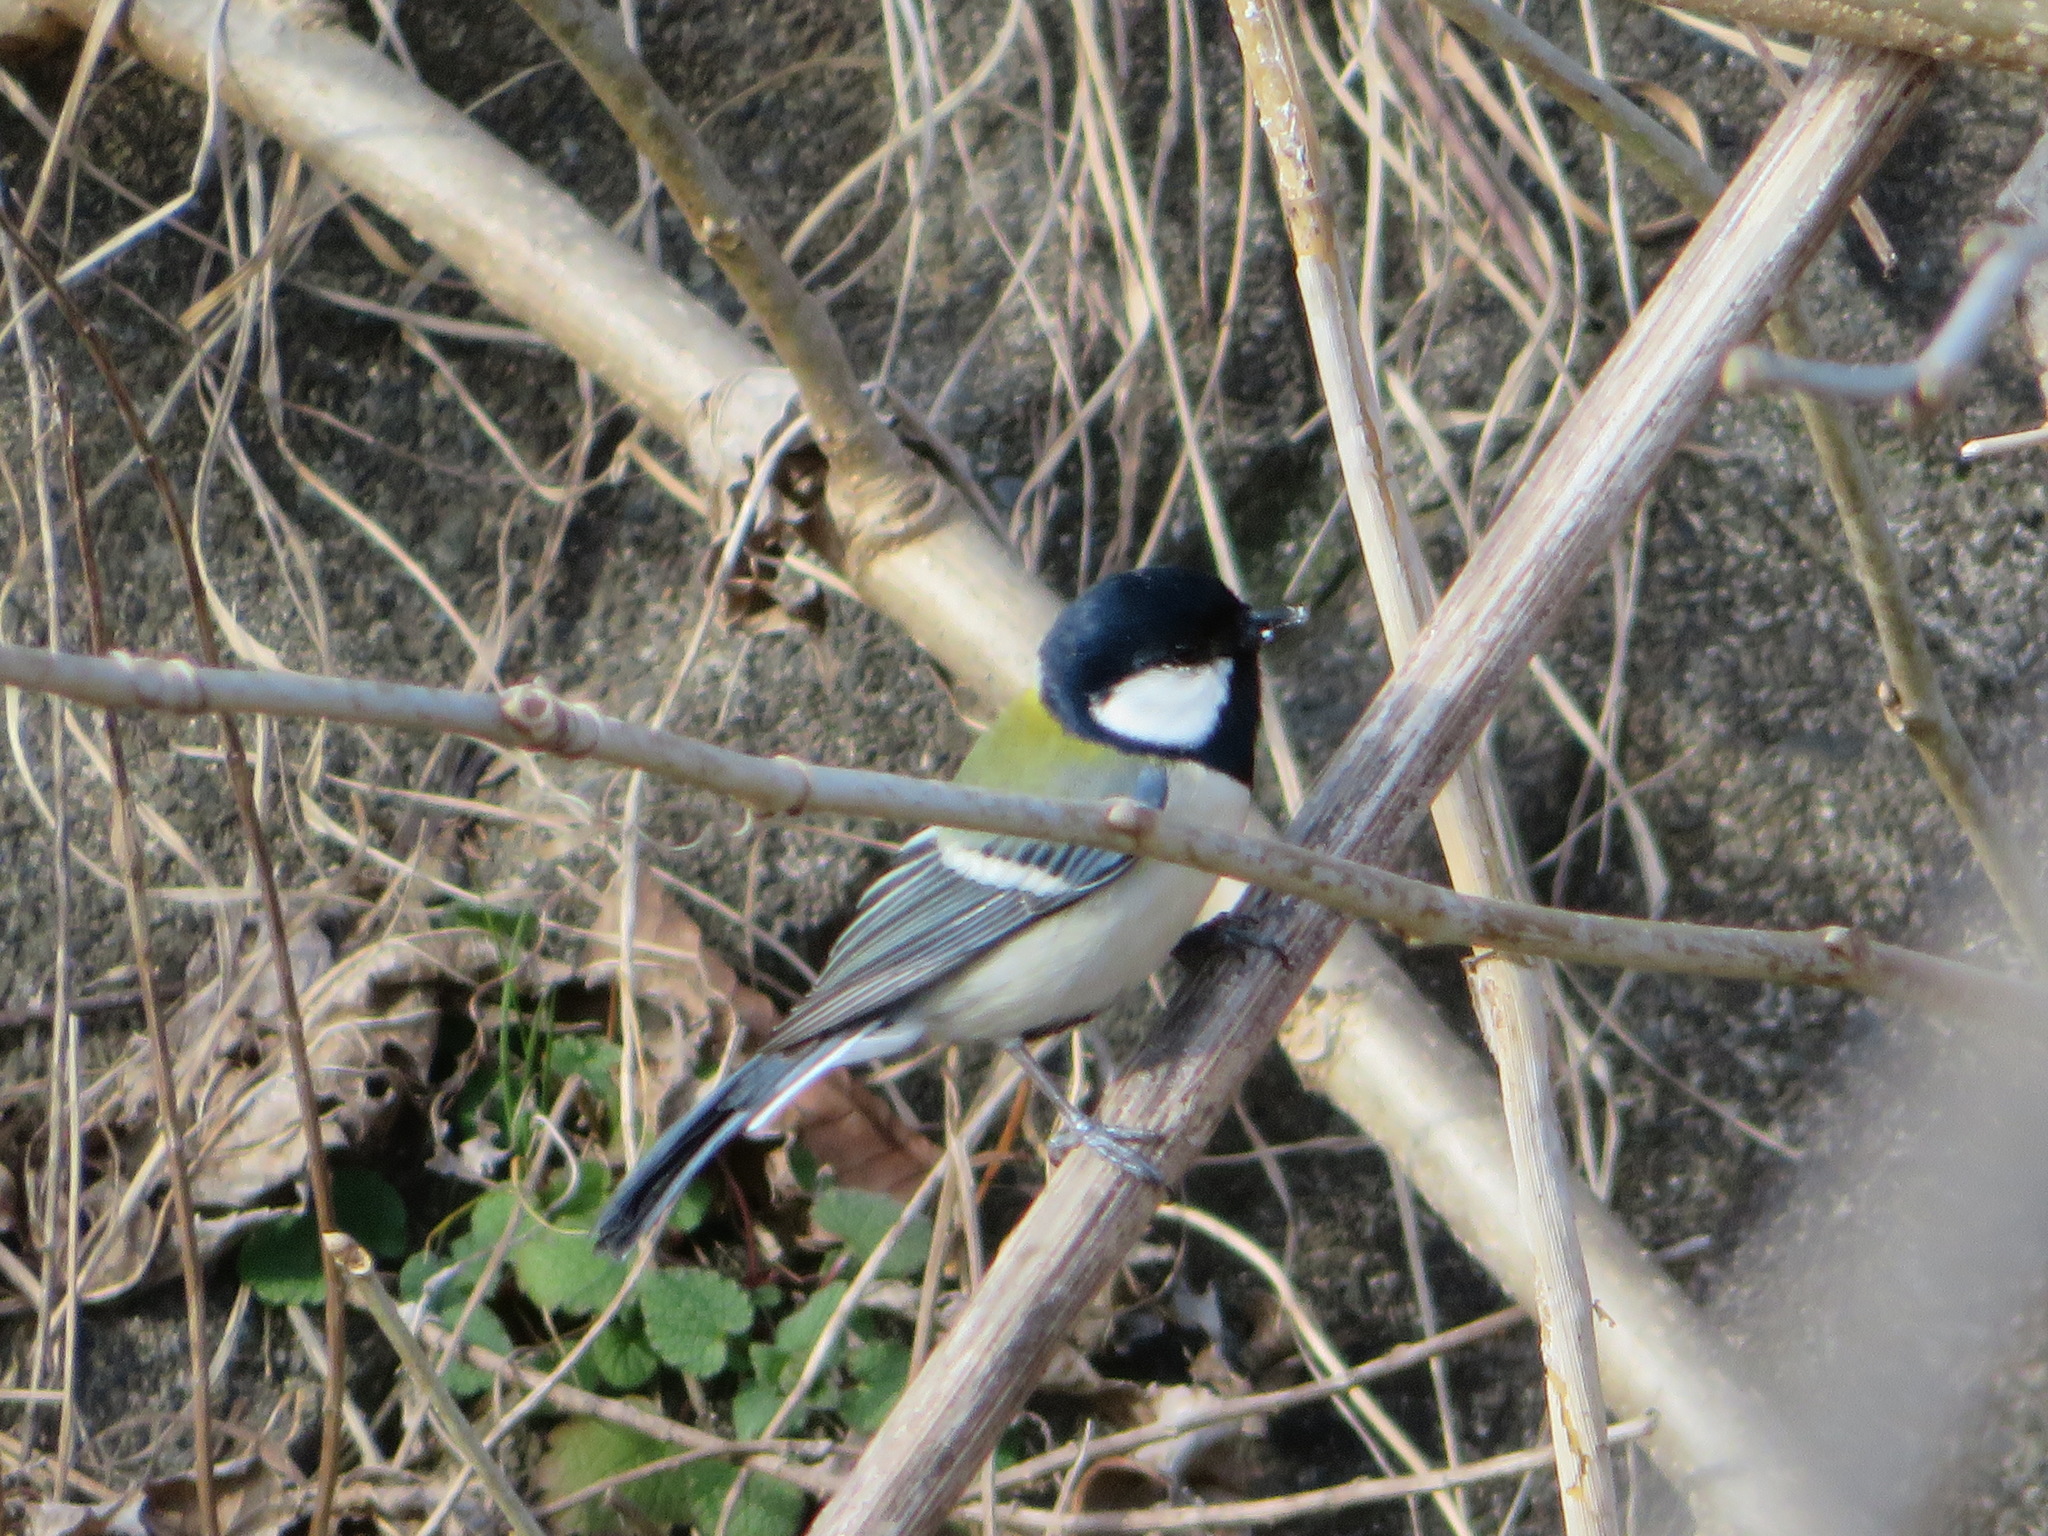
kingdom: Animalia
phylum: Chordata
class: Aves
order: Passeriformes
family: Paridae
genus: Parus
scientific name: Parus minor
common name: Japanese tit
